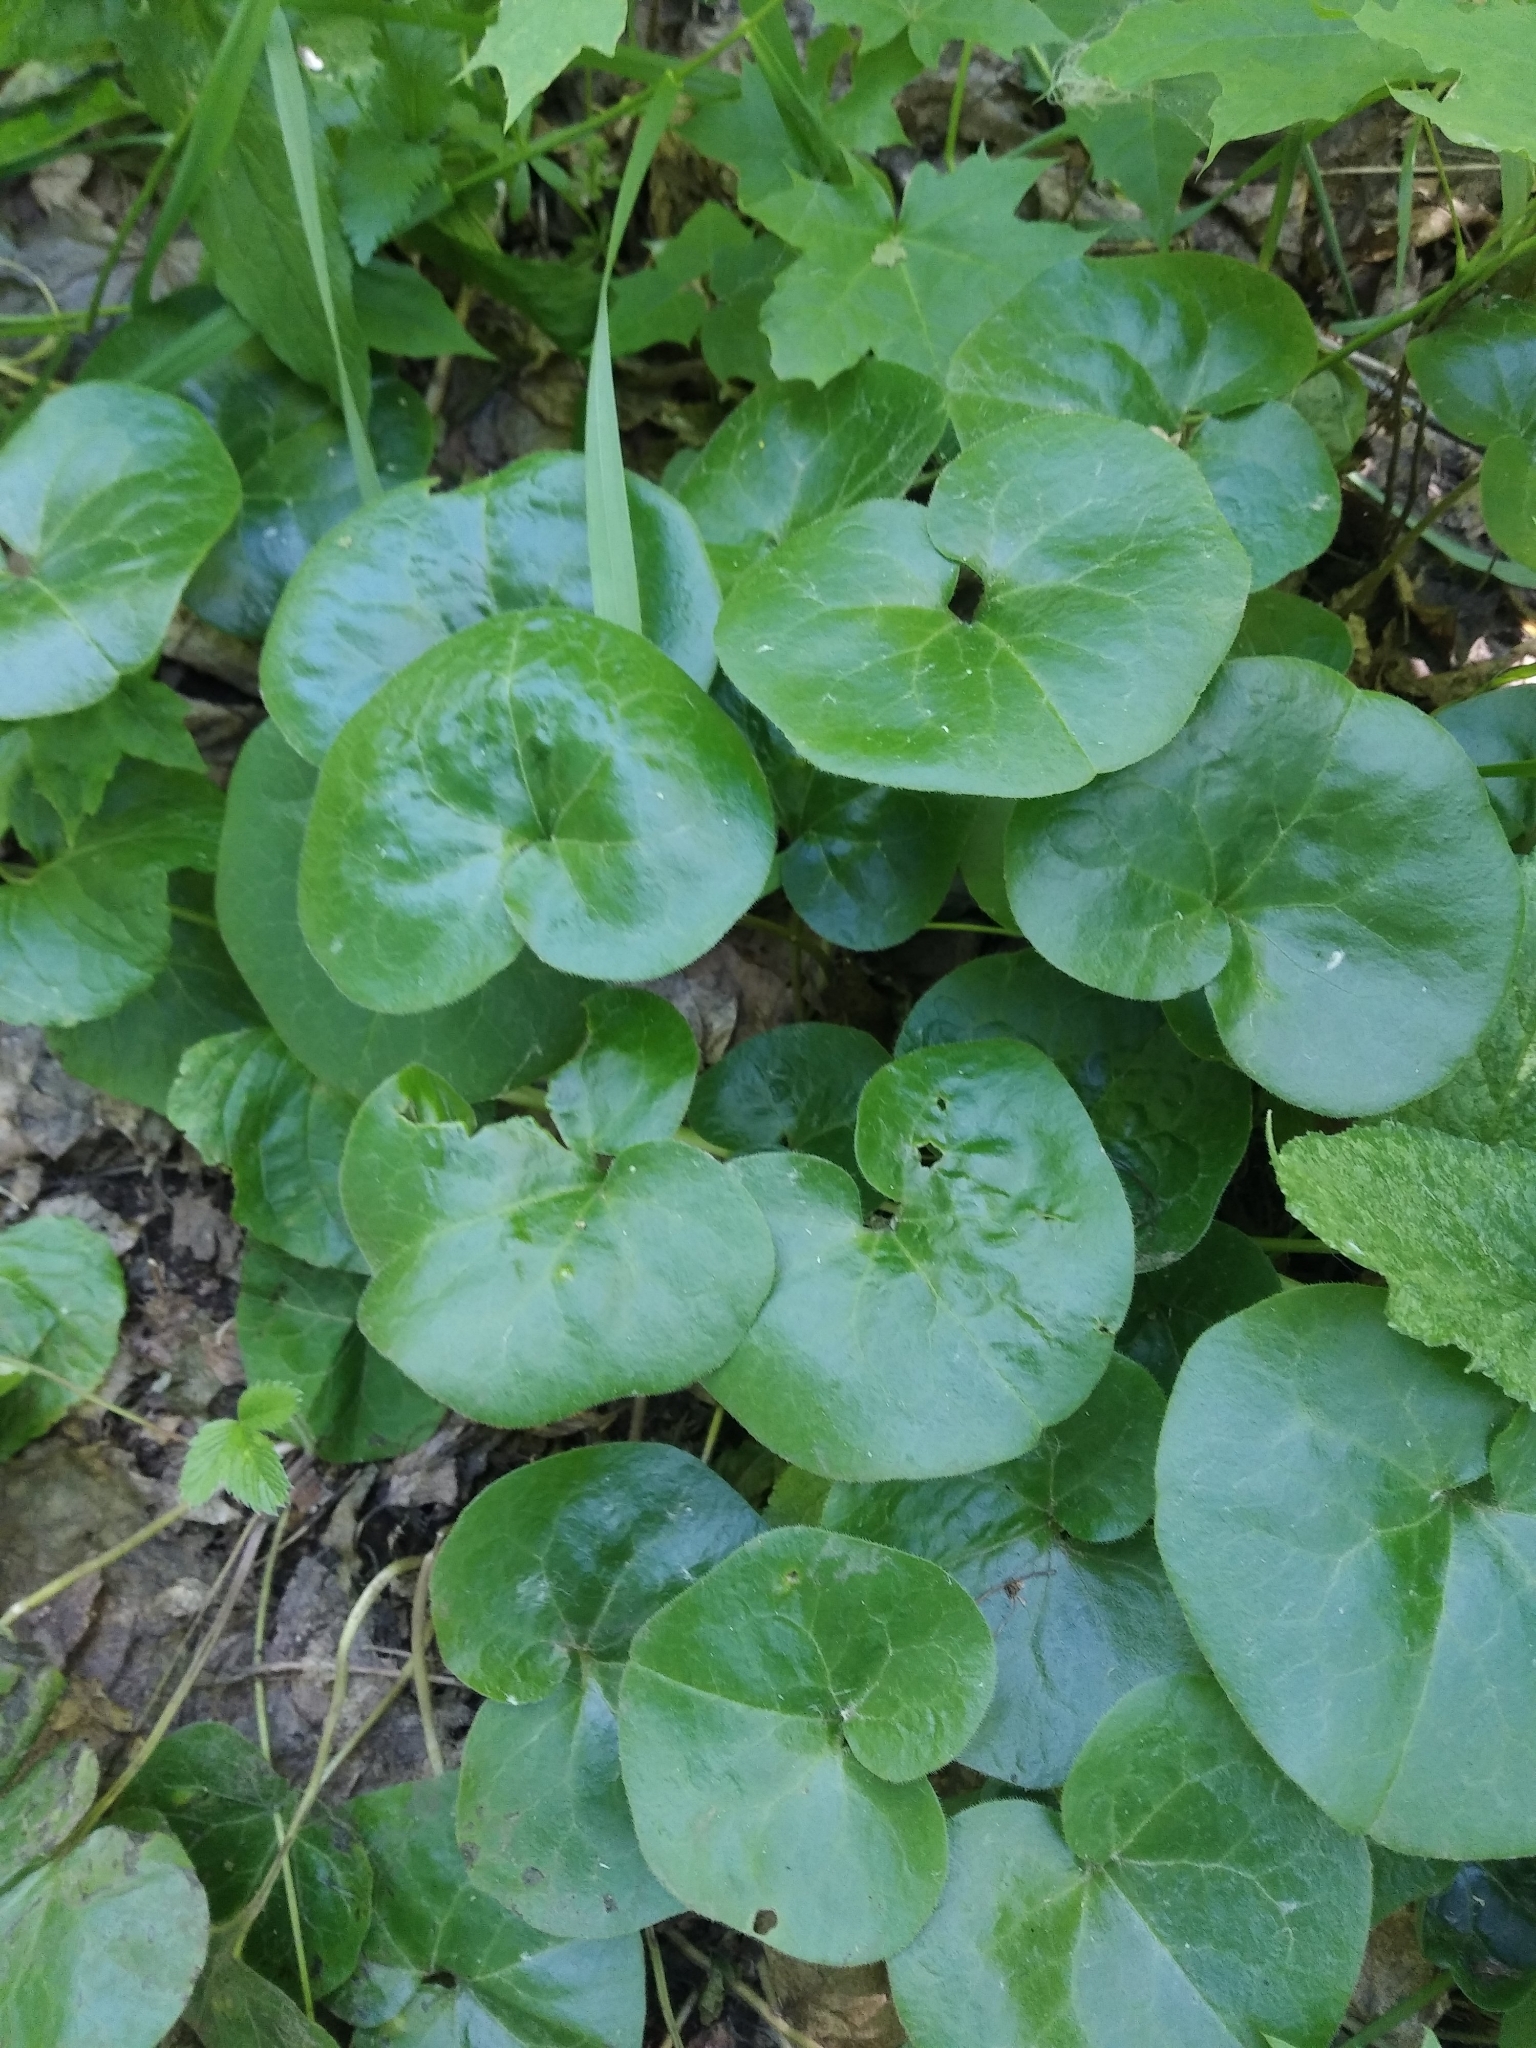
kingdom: Plantae
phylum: Tracheophyta
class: Magnoliopsida
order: Piperales
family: Aristolochiaceae
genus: Asarum
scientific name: Asarum europaeum
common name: Asarabacca
